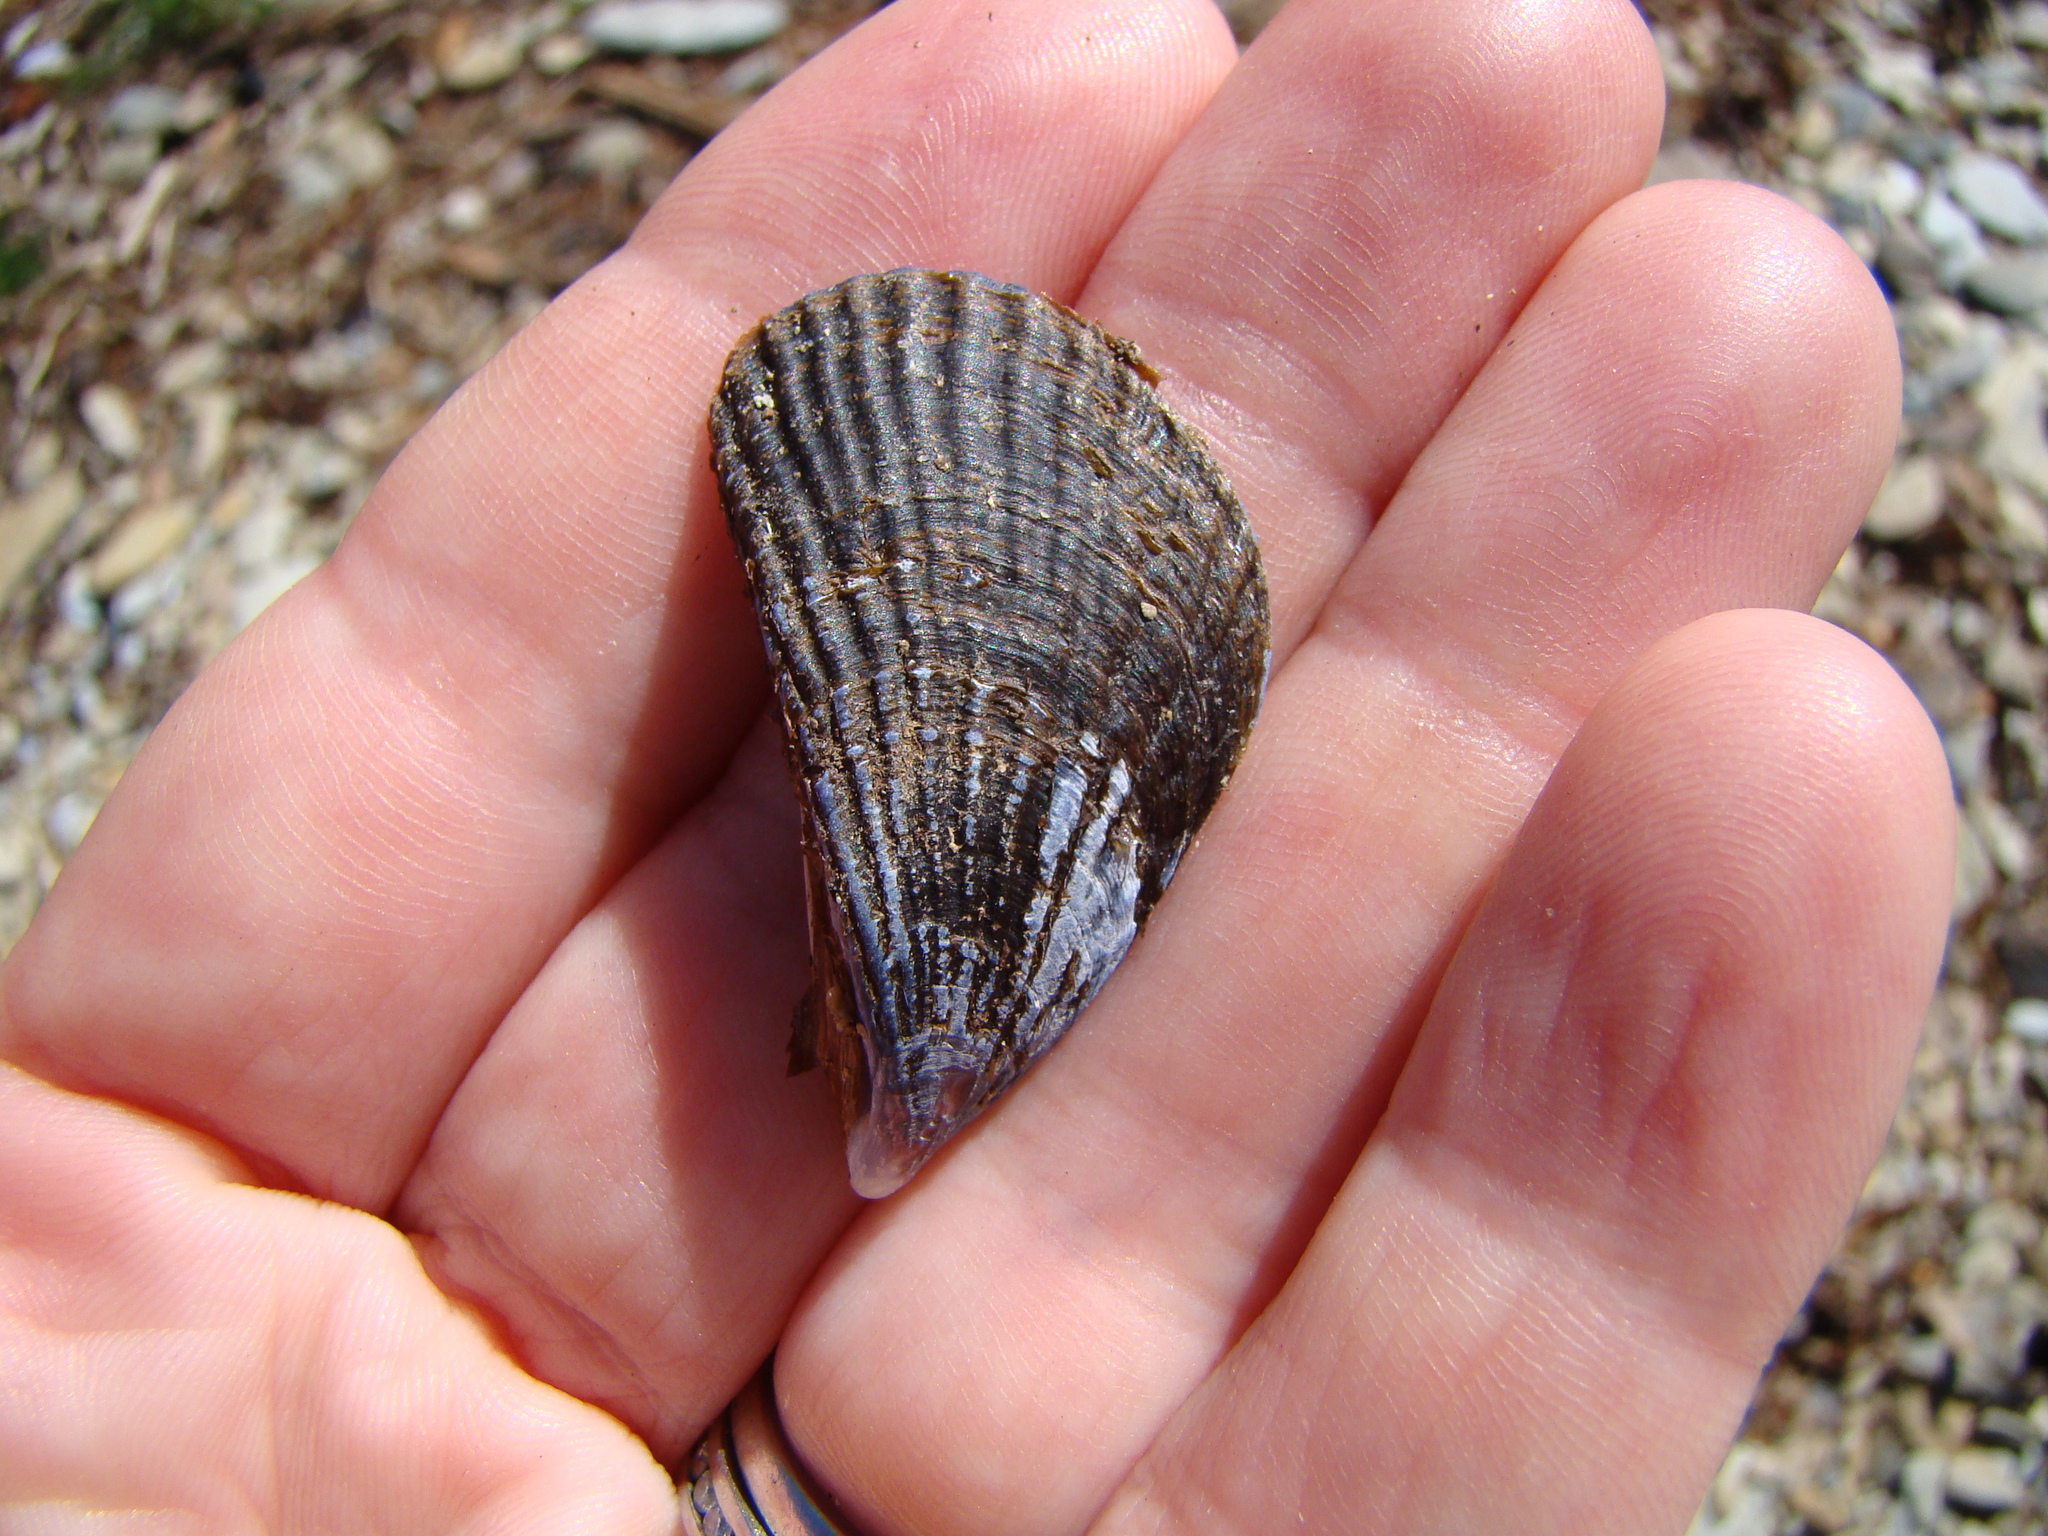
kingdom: Animalia
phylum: Mollusca
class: Bivalvia
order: Mytilida
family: Mytilidae
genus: Aulacomya
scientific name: Aulacomya maoriana
